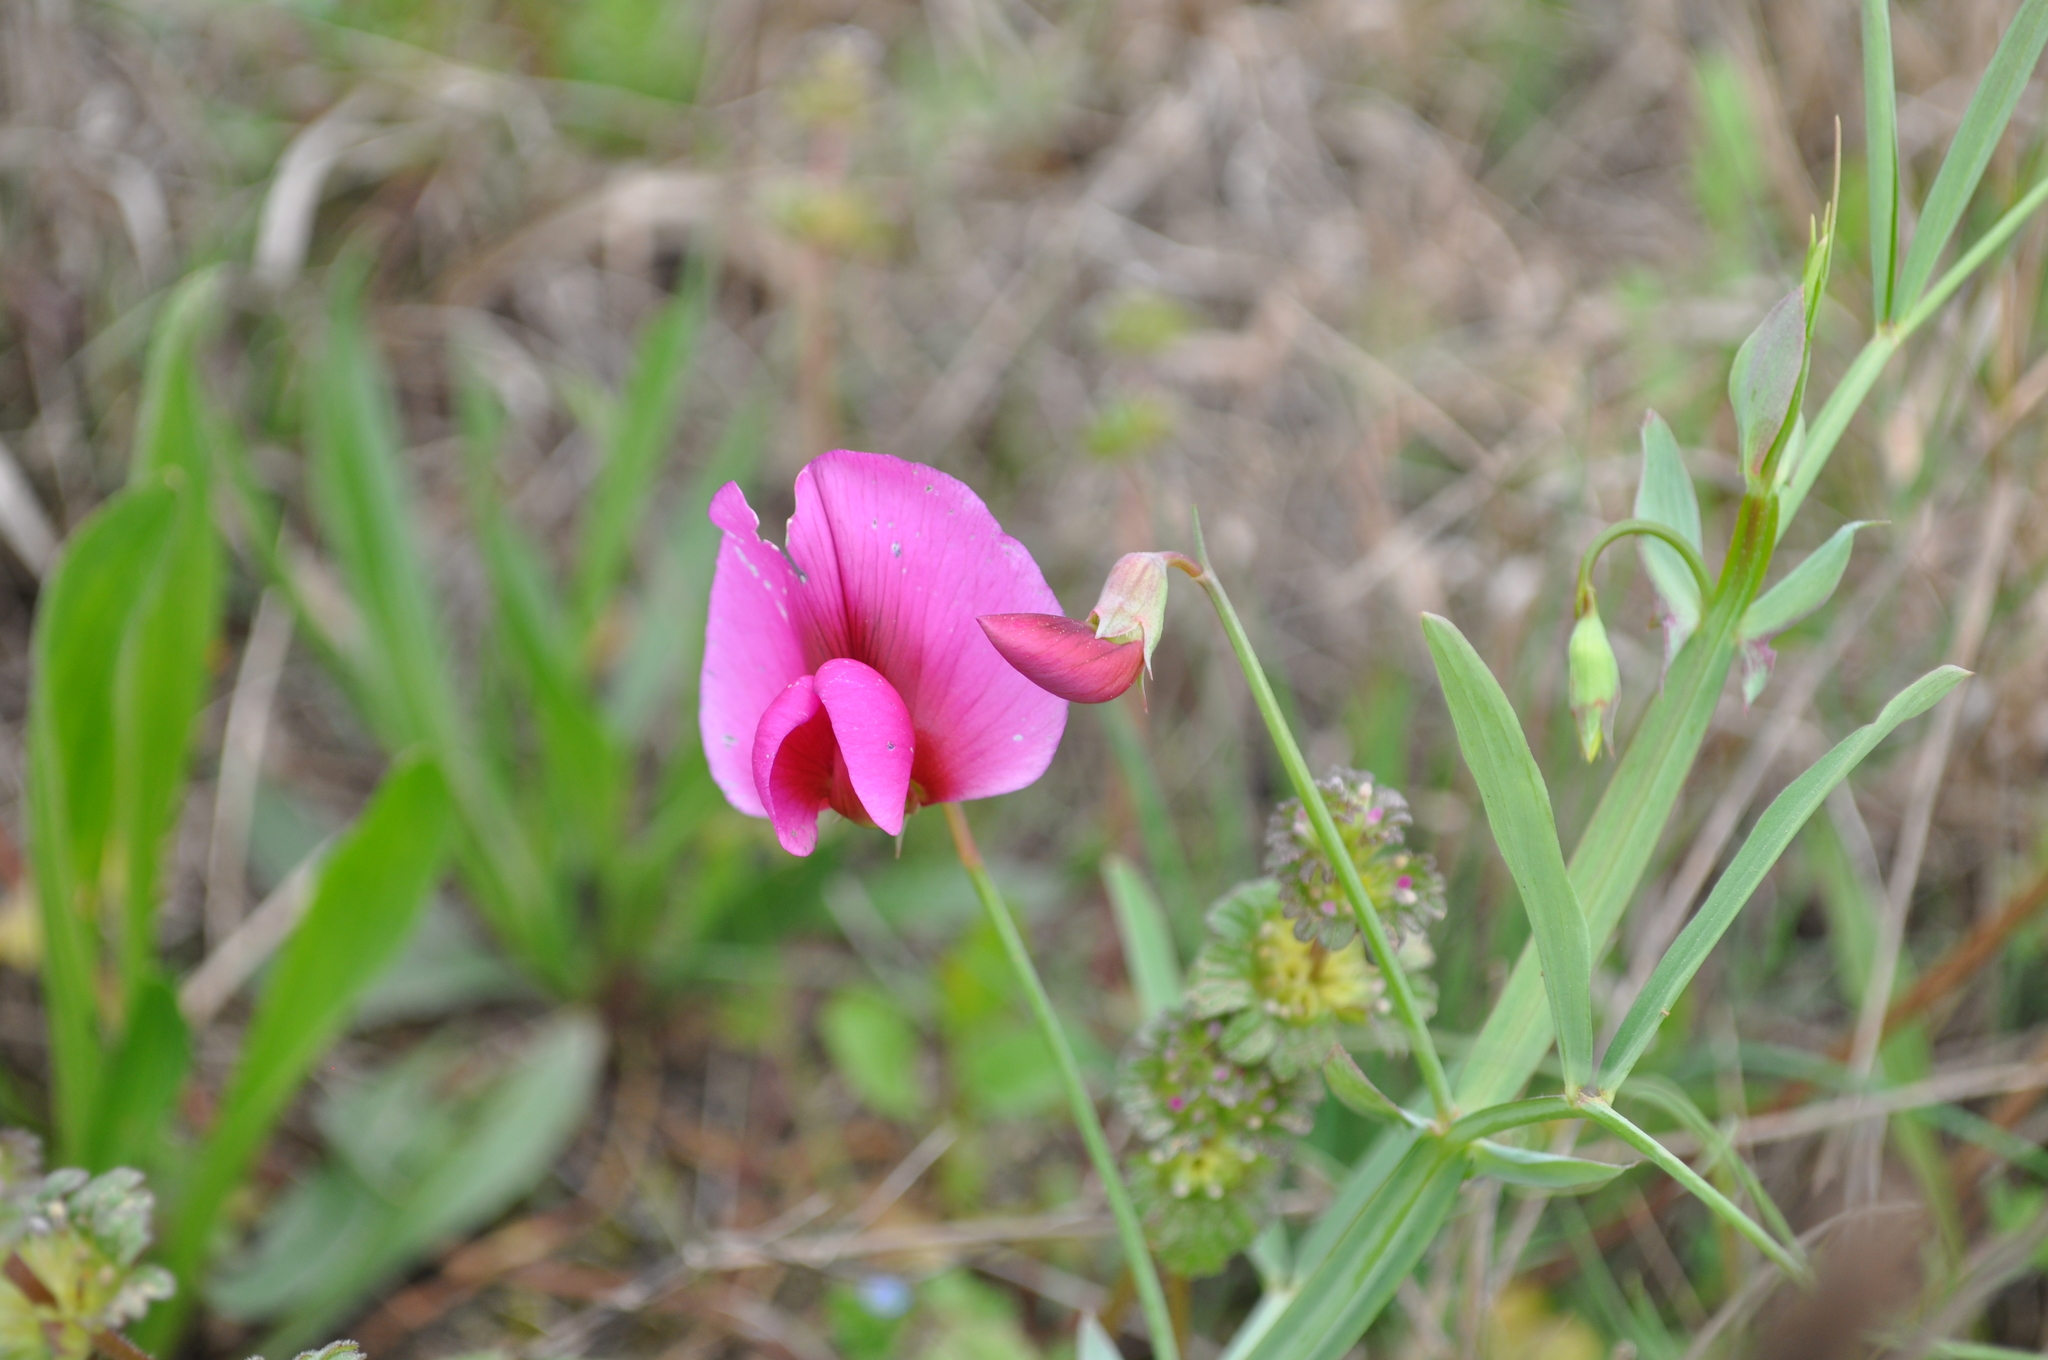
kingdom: Plantae
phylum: Tracheophyta
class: Magnoliopsida
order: Fabales
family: Fabaceae
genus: Lathyrus
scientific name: Lathyrus tingitanus
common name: Tangier pea
